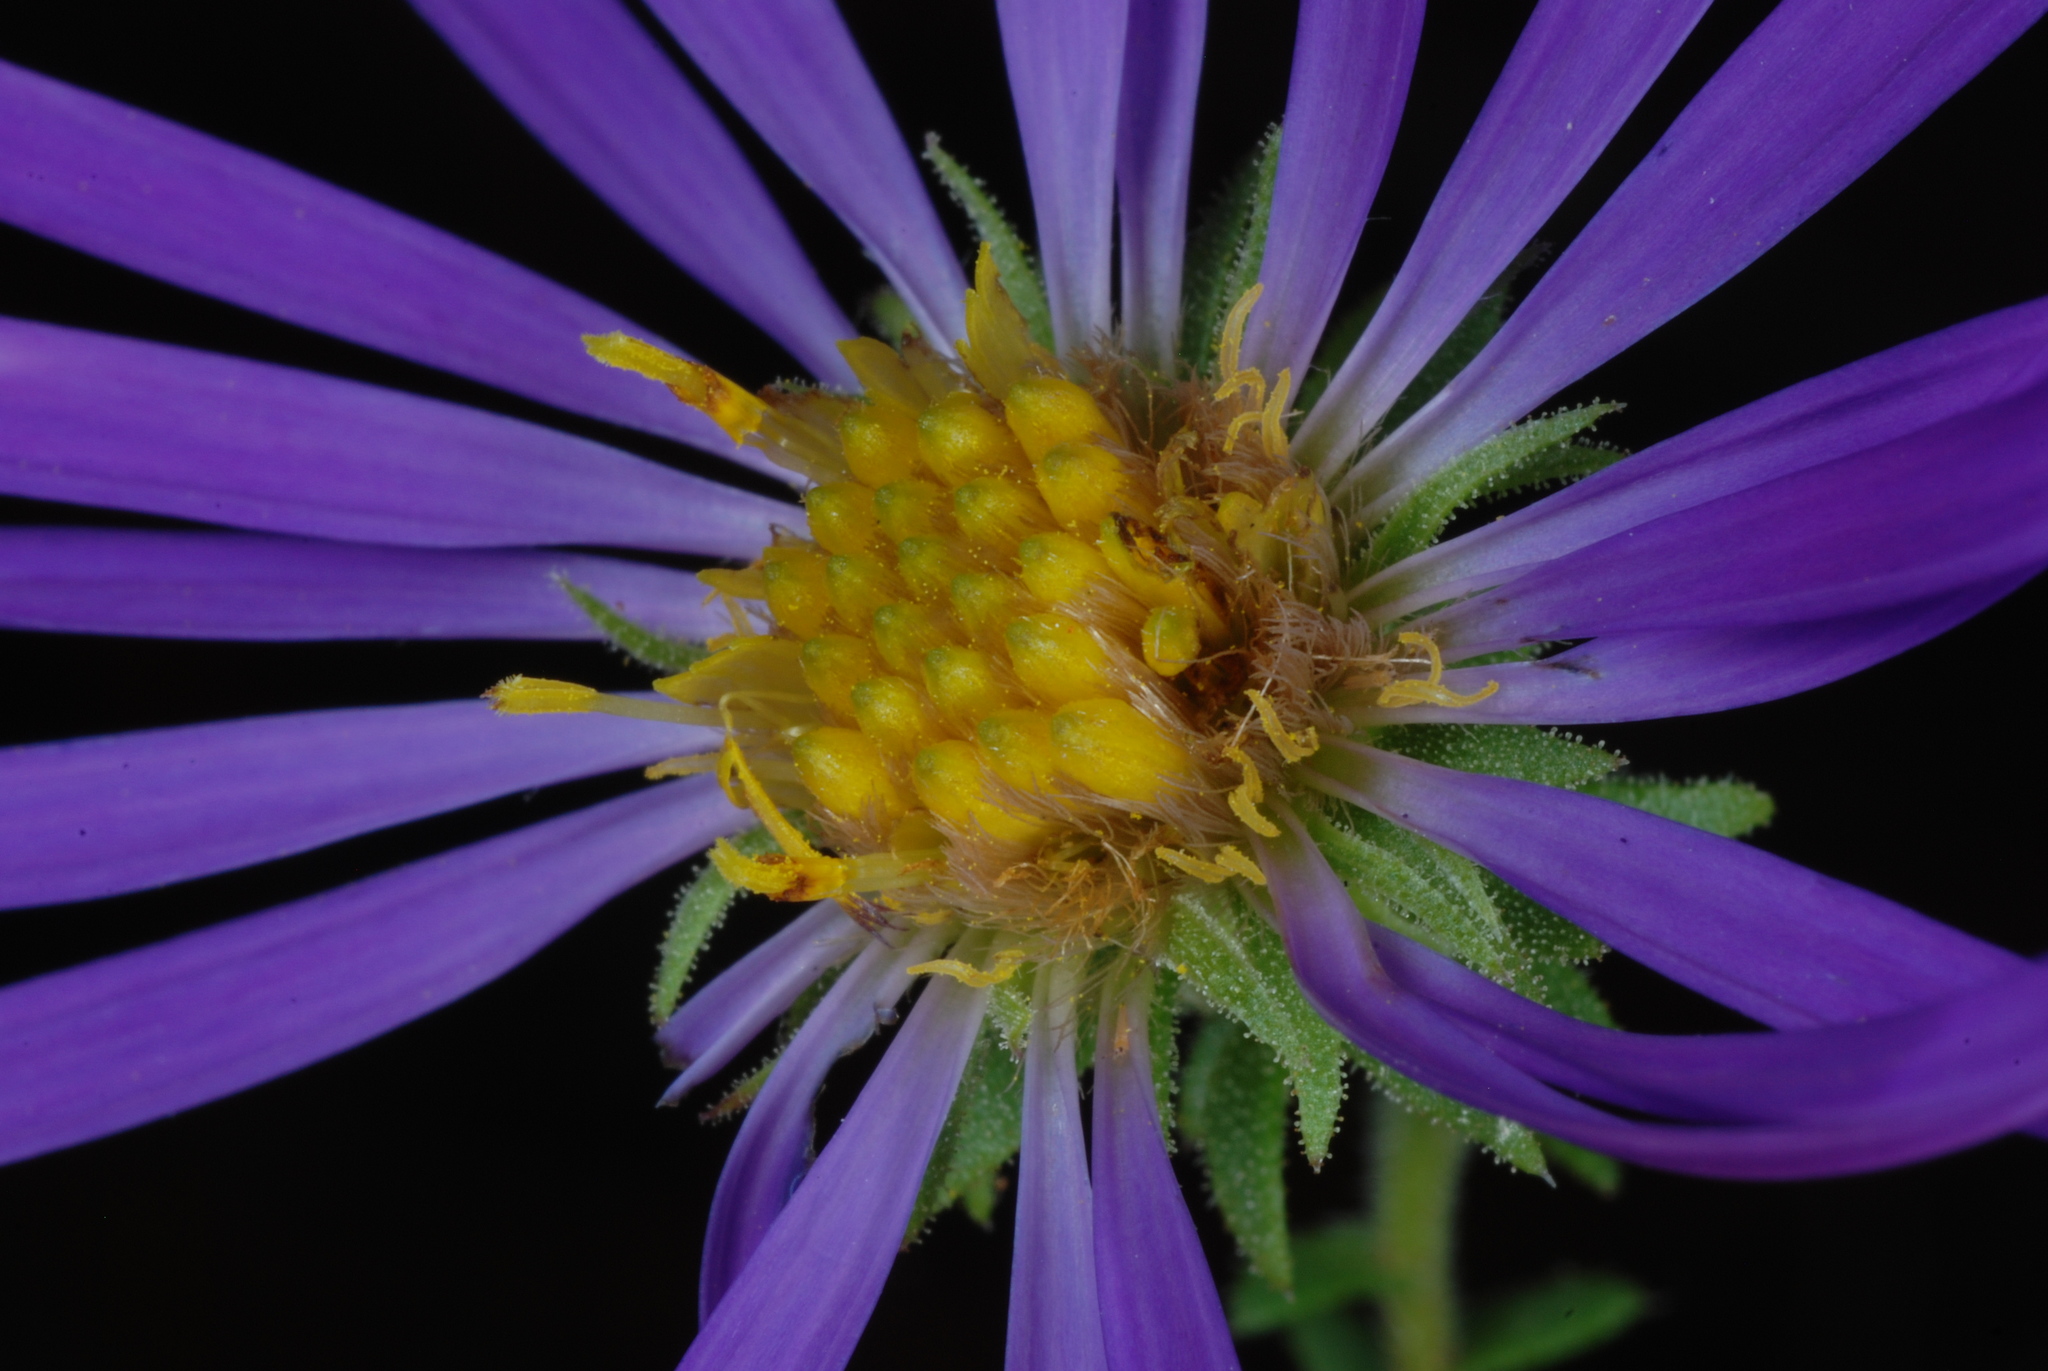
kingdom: Plantae
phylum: Tracheophyta
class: Magnoliopsida
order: Asterales
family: Asteraceae
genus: Symphyotrichum
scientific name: Symphyotrichum grandiflorum
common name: Big-head aster
